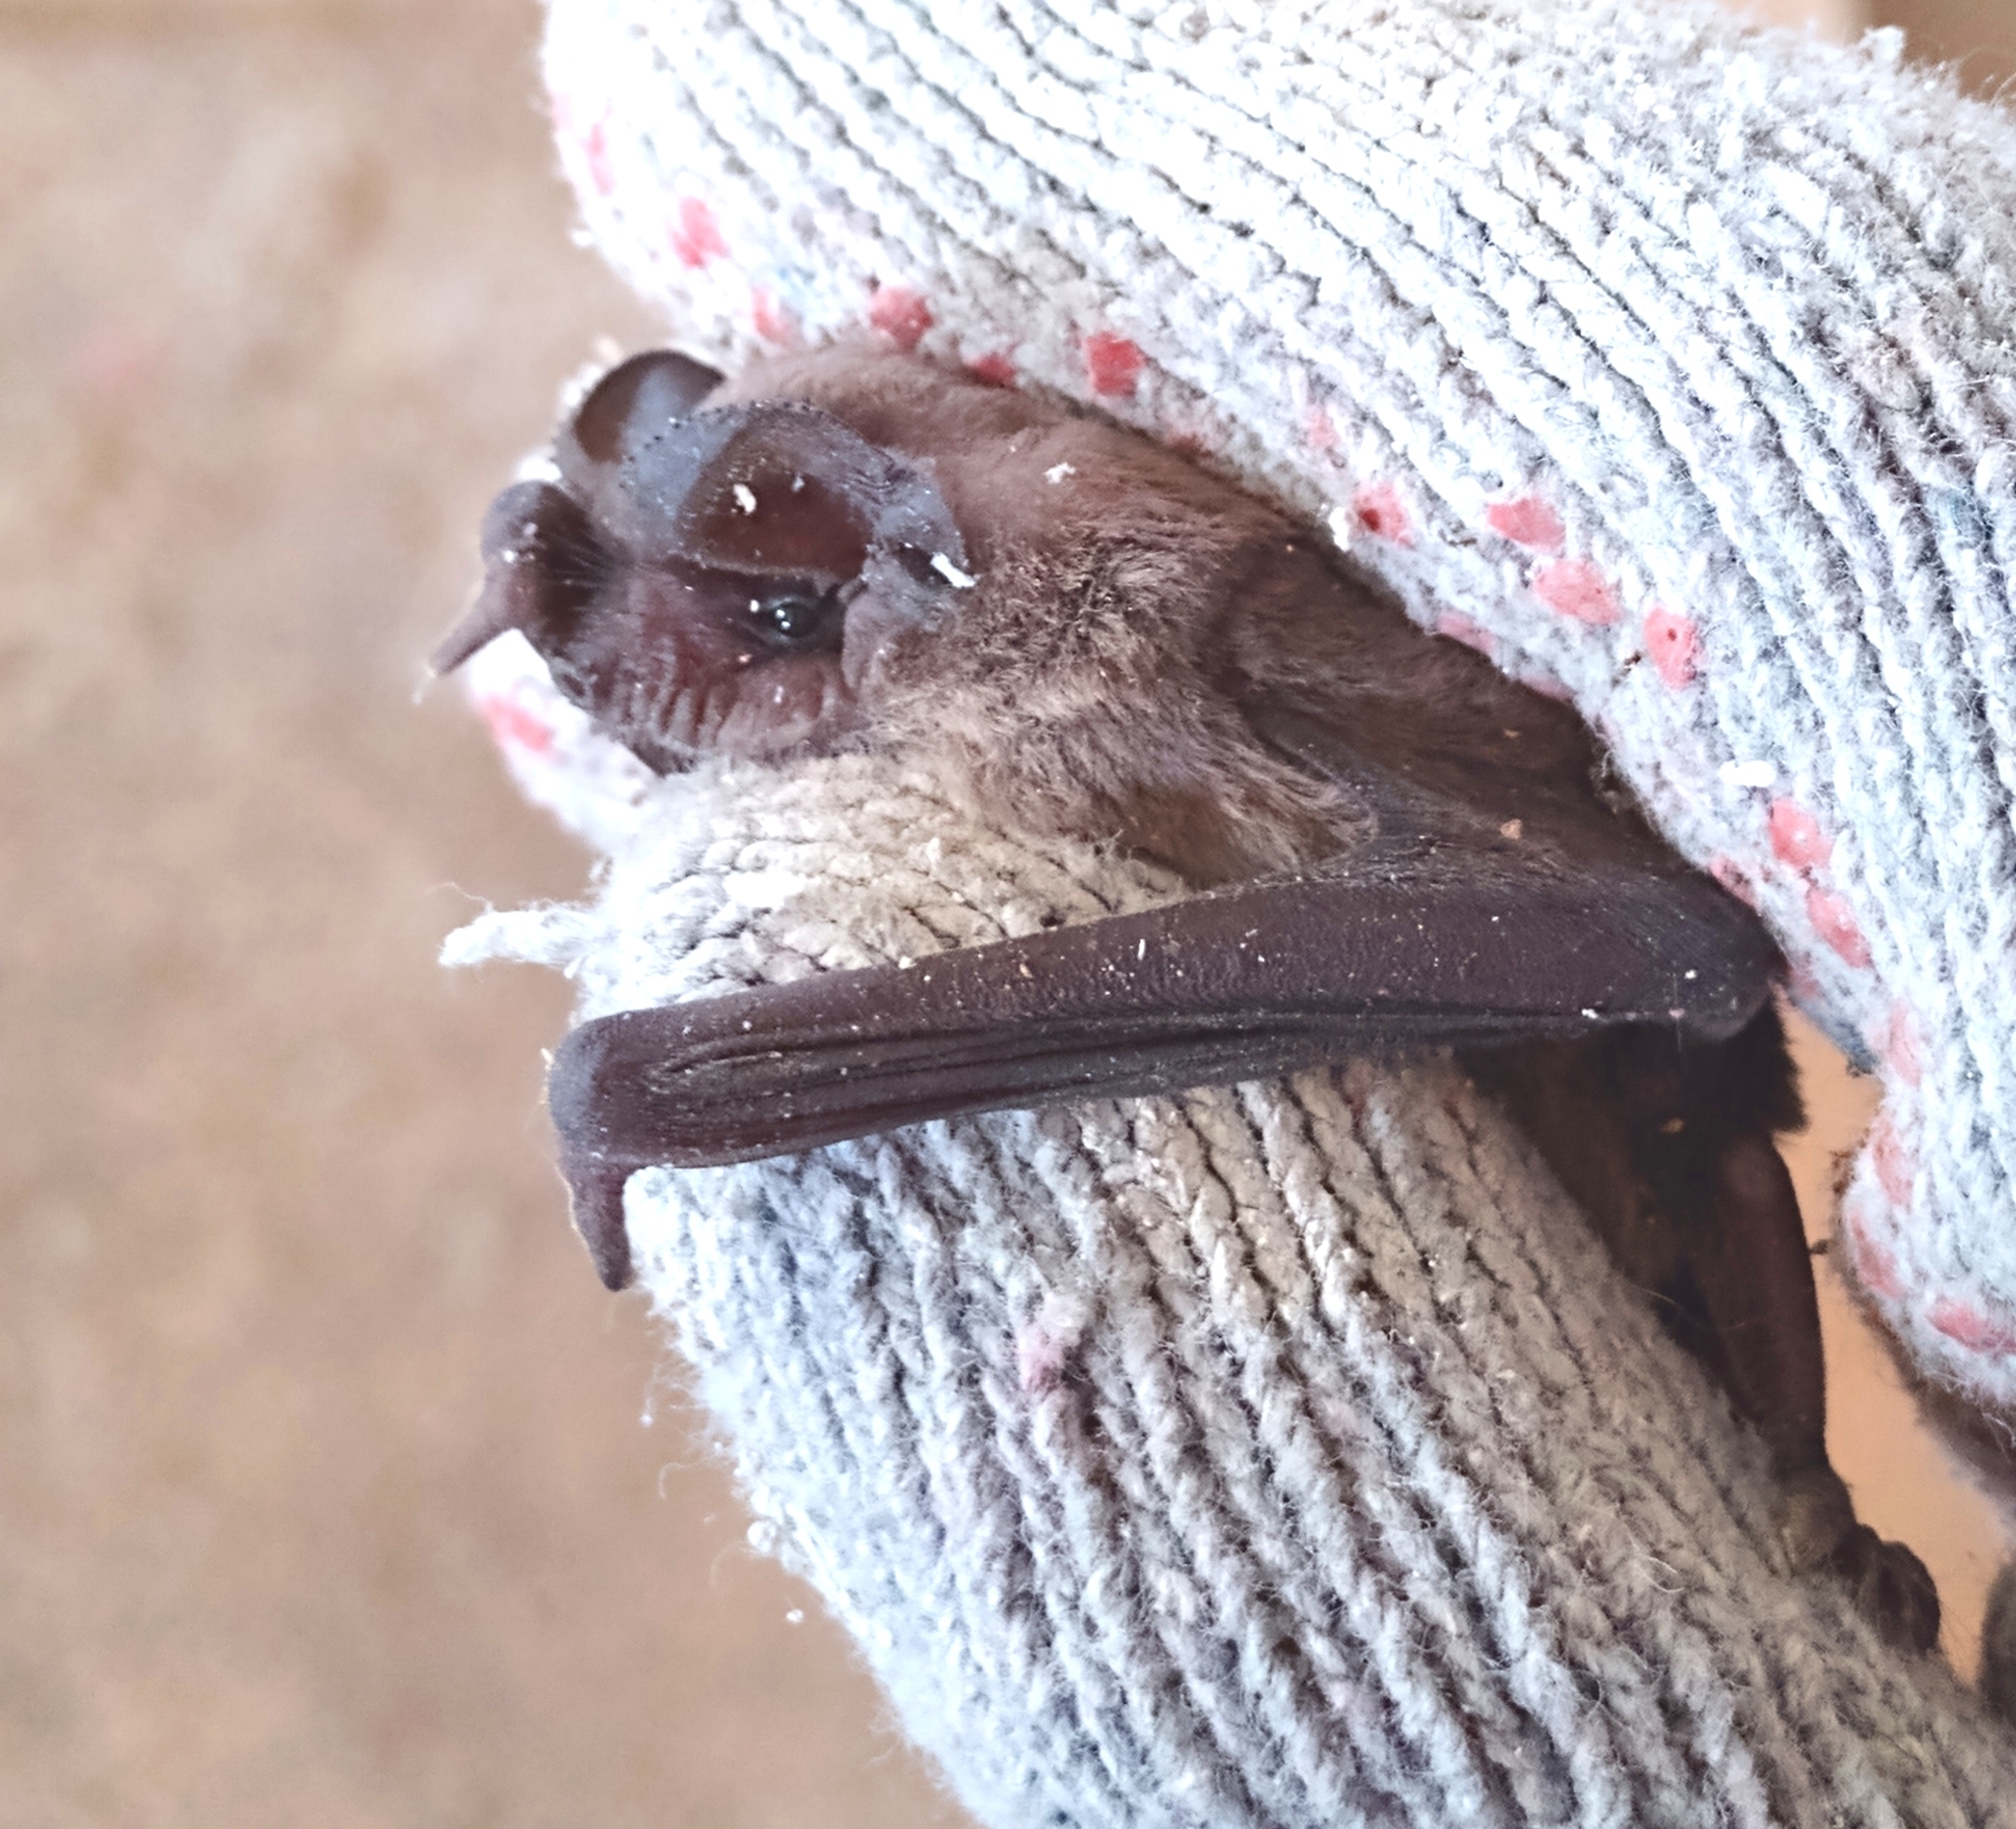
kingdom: Animalia
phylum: Chordata
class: Mammalia
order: Chiroptera
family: Molossidae
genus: Tadarida
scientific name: Tadarida brasiliensis
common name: Mexican free-tailed bat
